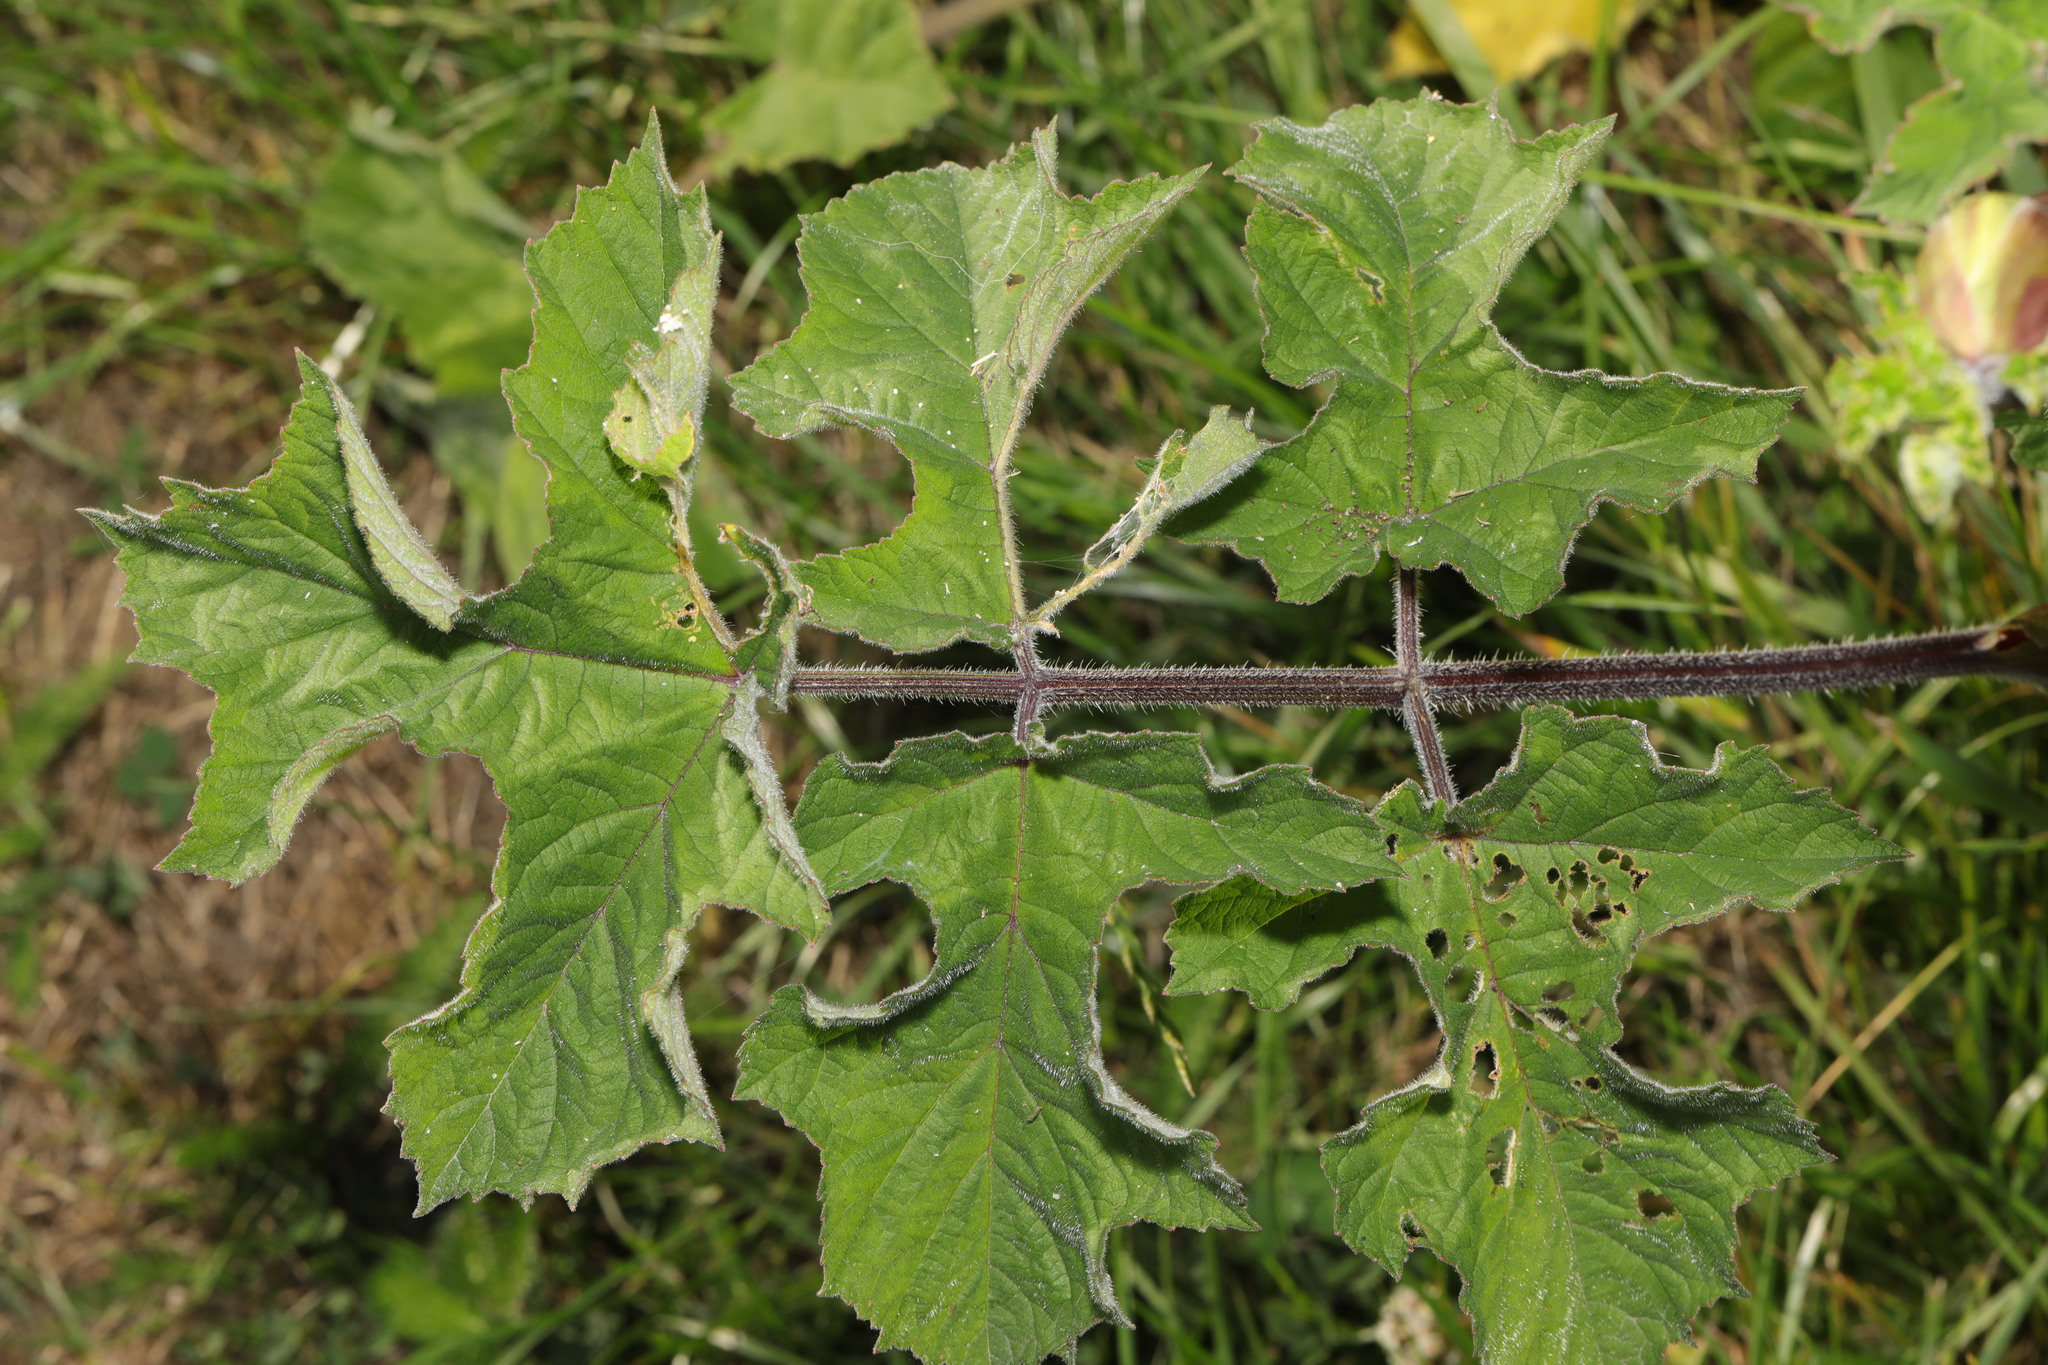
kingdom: Plantae
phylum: Tracheophyta
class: Magnoliopsida
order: Apiales
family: Apiaceae
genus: Heracleum
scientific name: Heracleum sphondylium
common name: Hogweed
